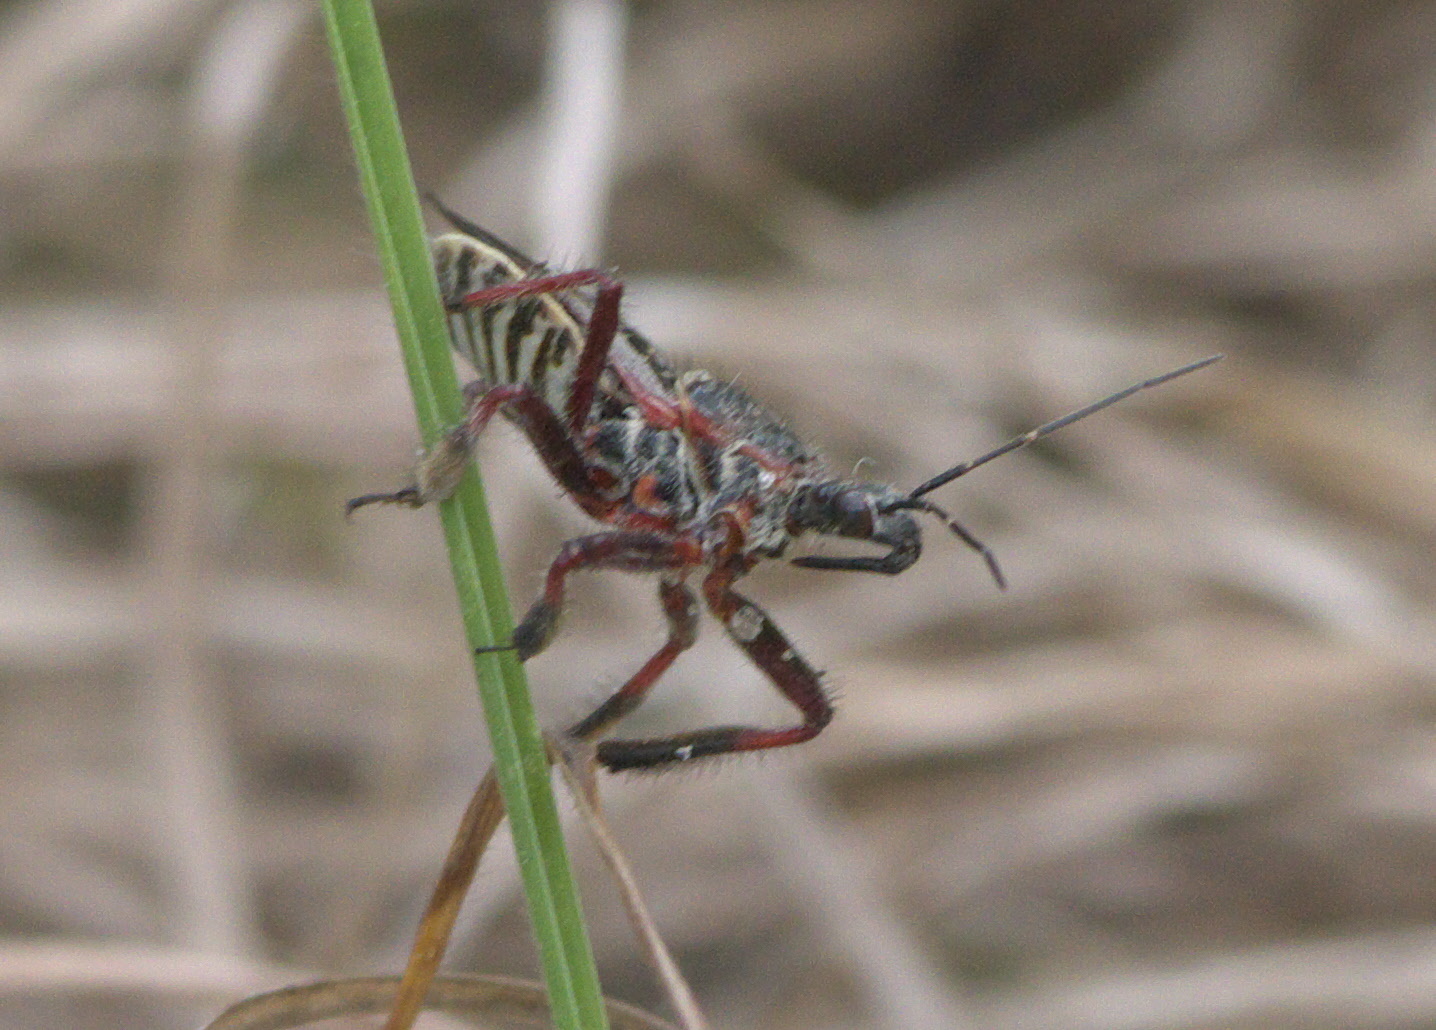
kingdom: Animalia
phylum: Arthropoda
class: Insecta
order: Hemiptera
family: Reduviidae
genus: Apiomerus
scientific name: Apiomerus floridensis
